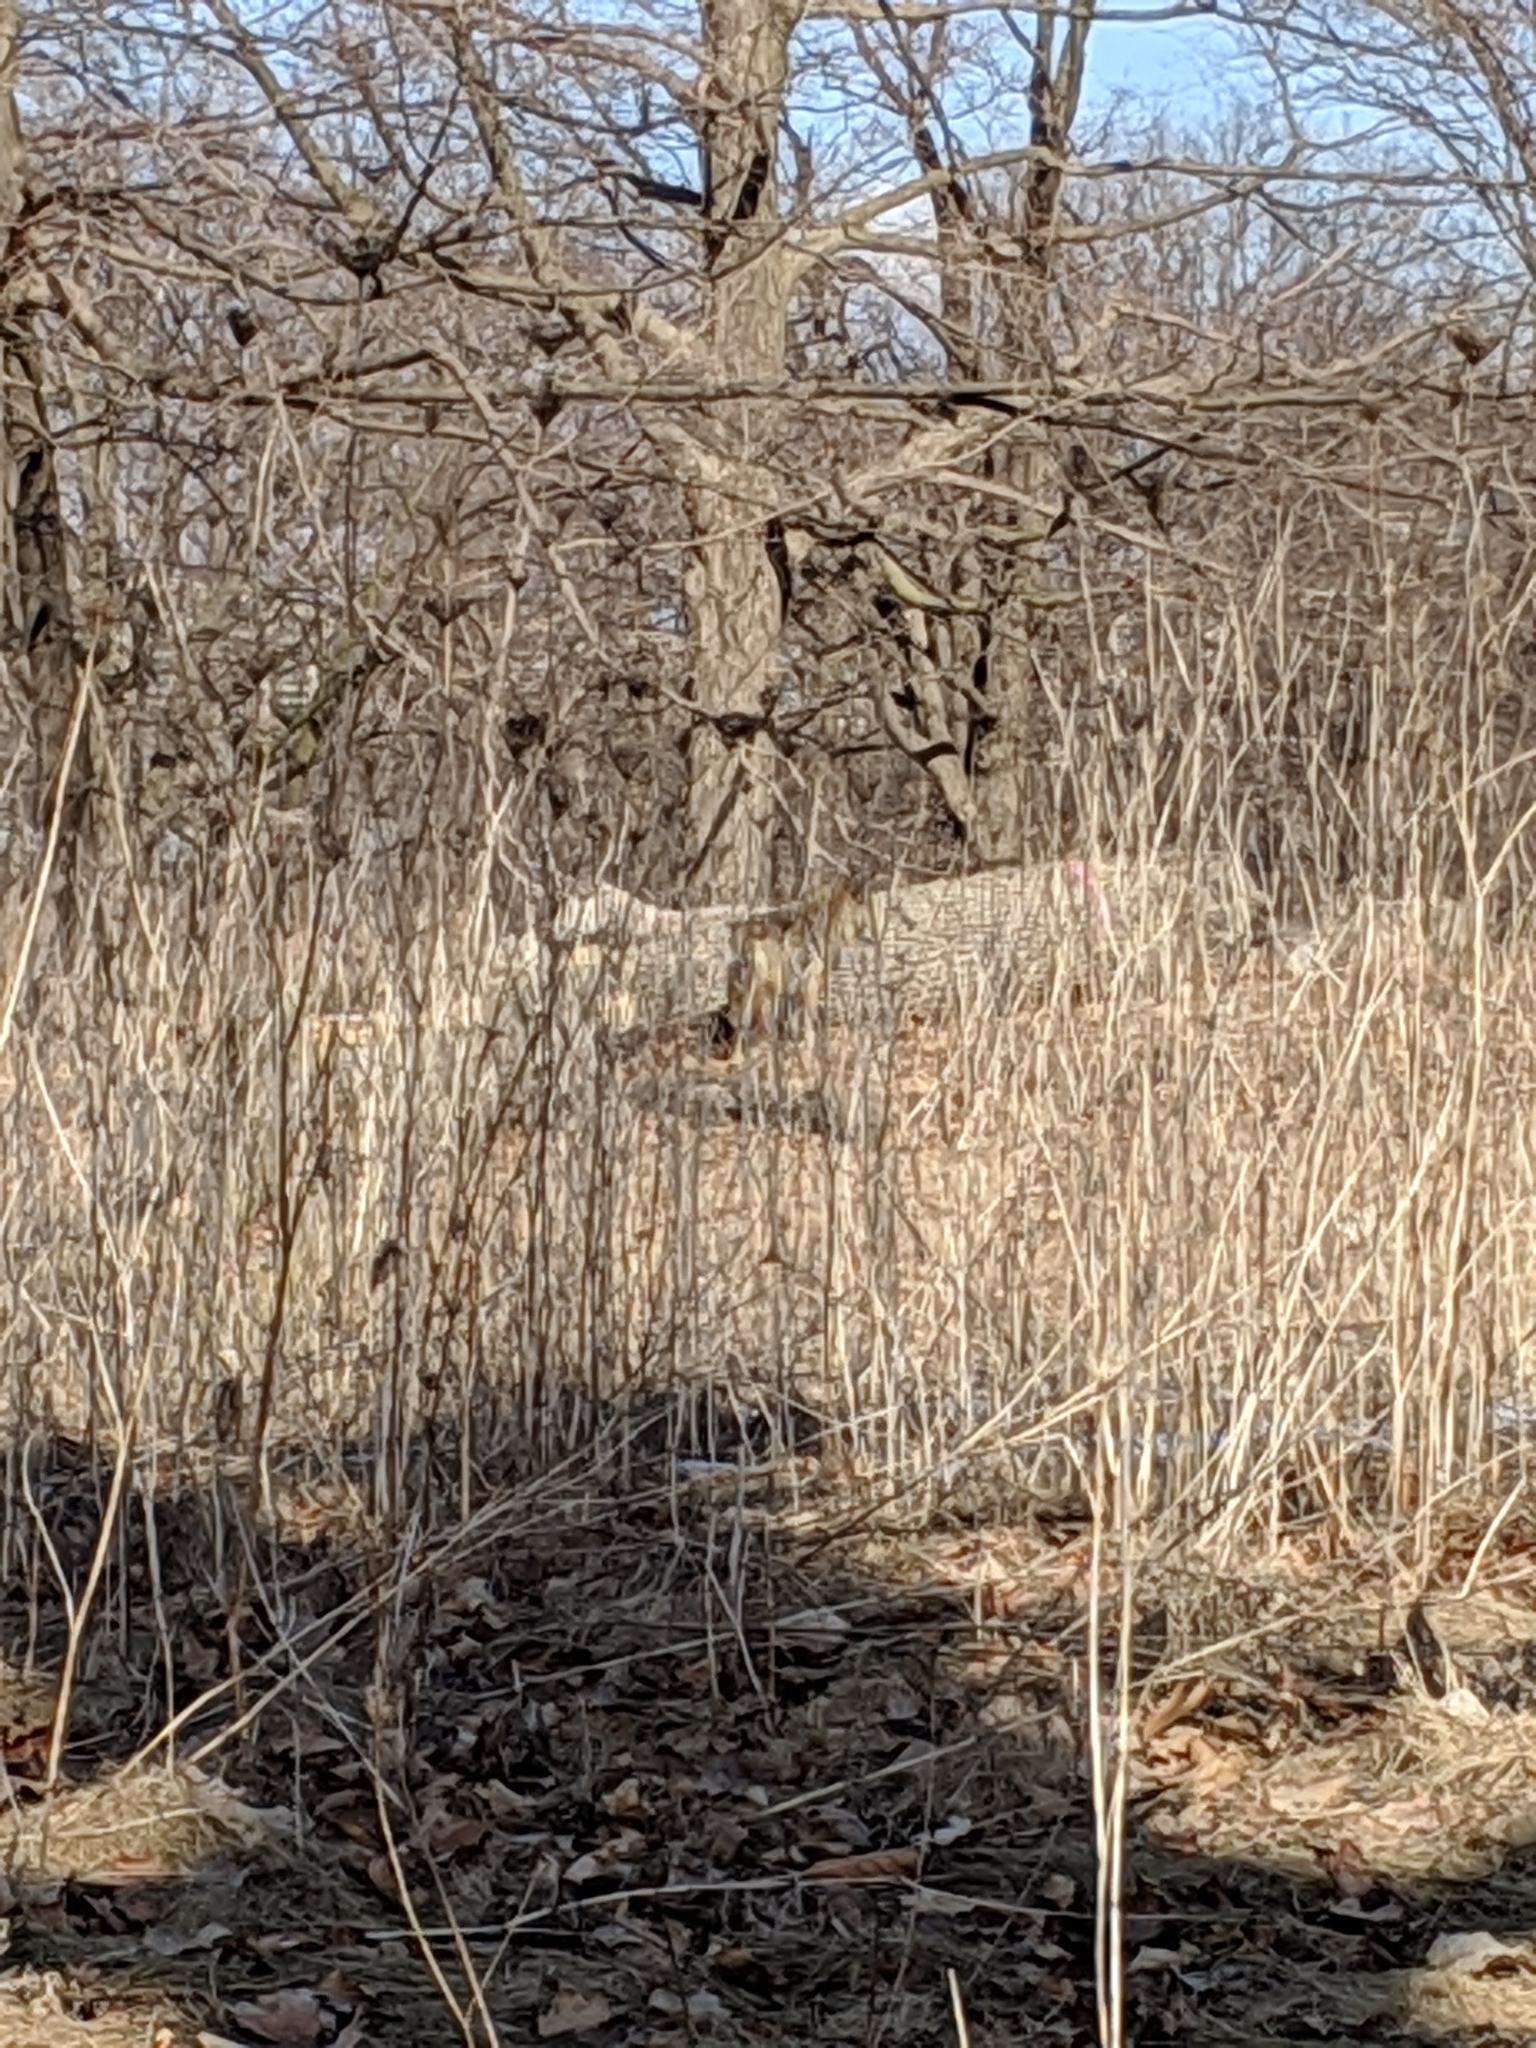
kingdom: Animalia
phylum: Chordata
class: Mammalia
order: Carnivora
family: Canidae
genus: Canis
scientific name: Canis latrans
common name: Coyote
